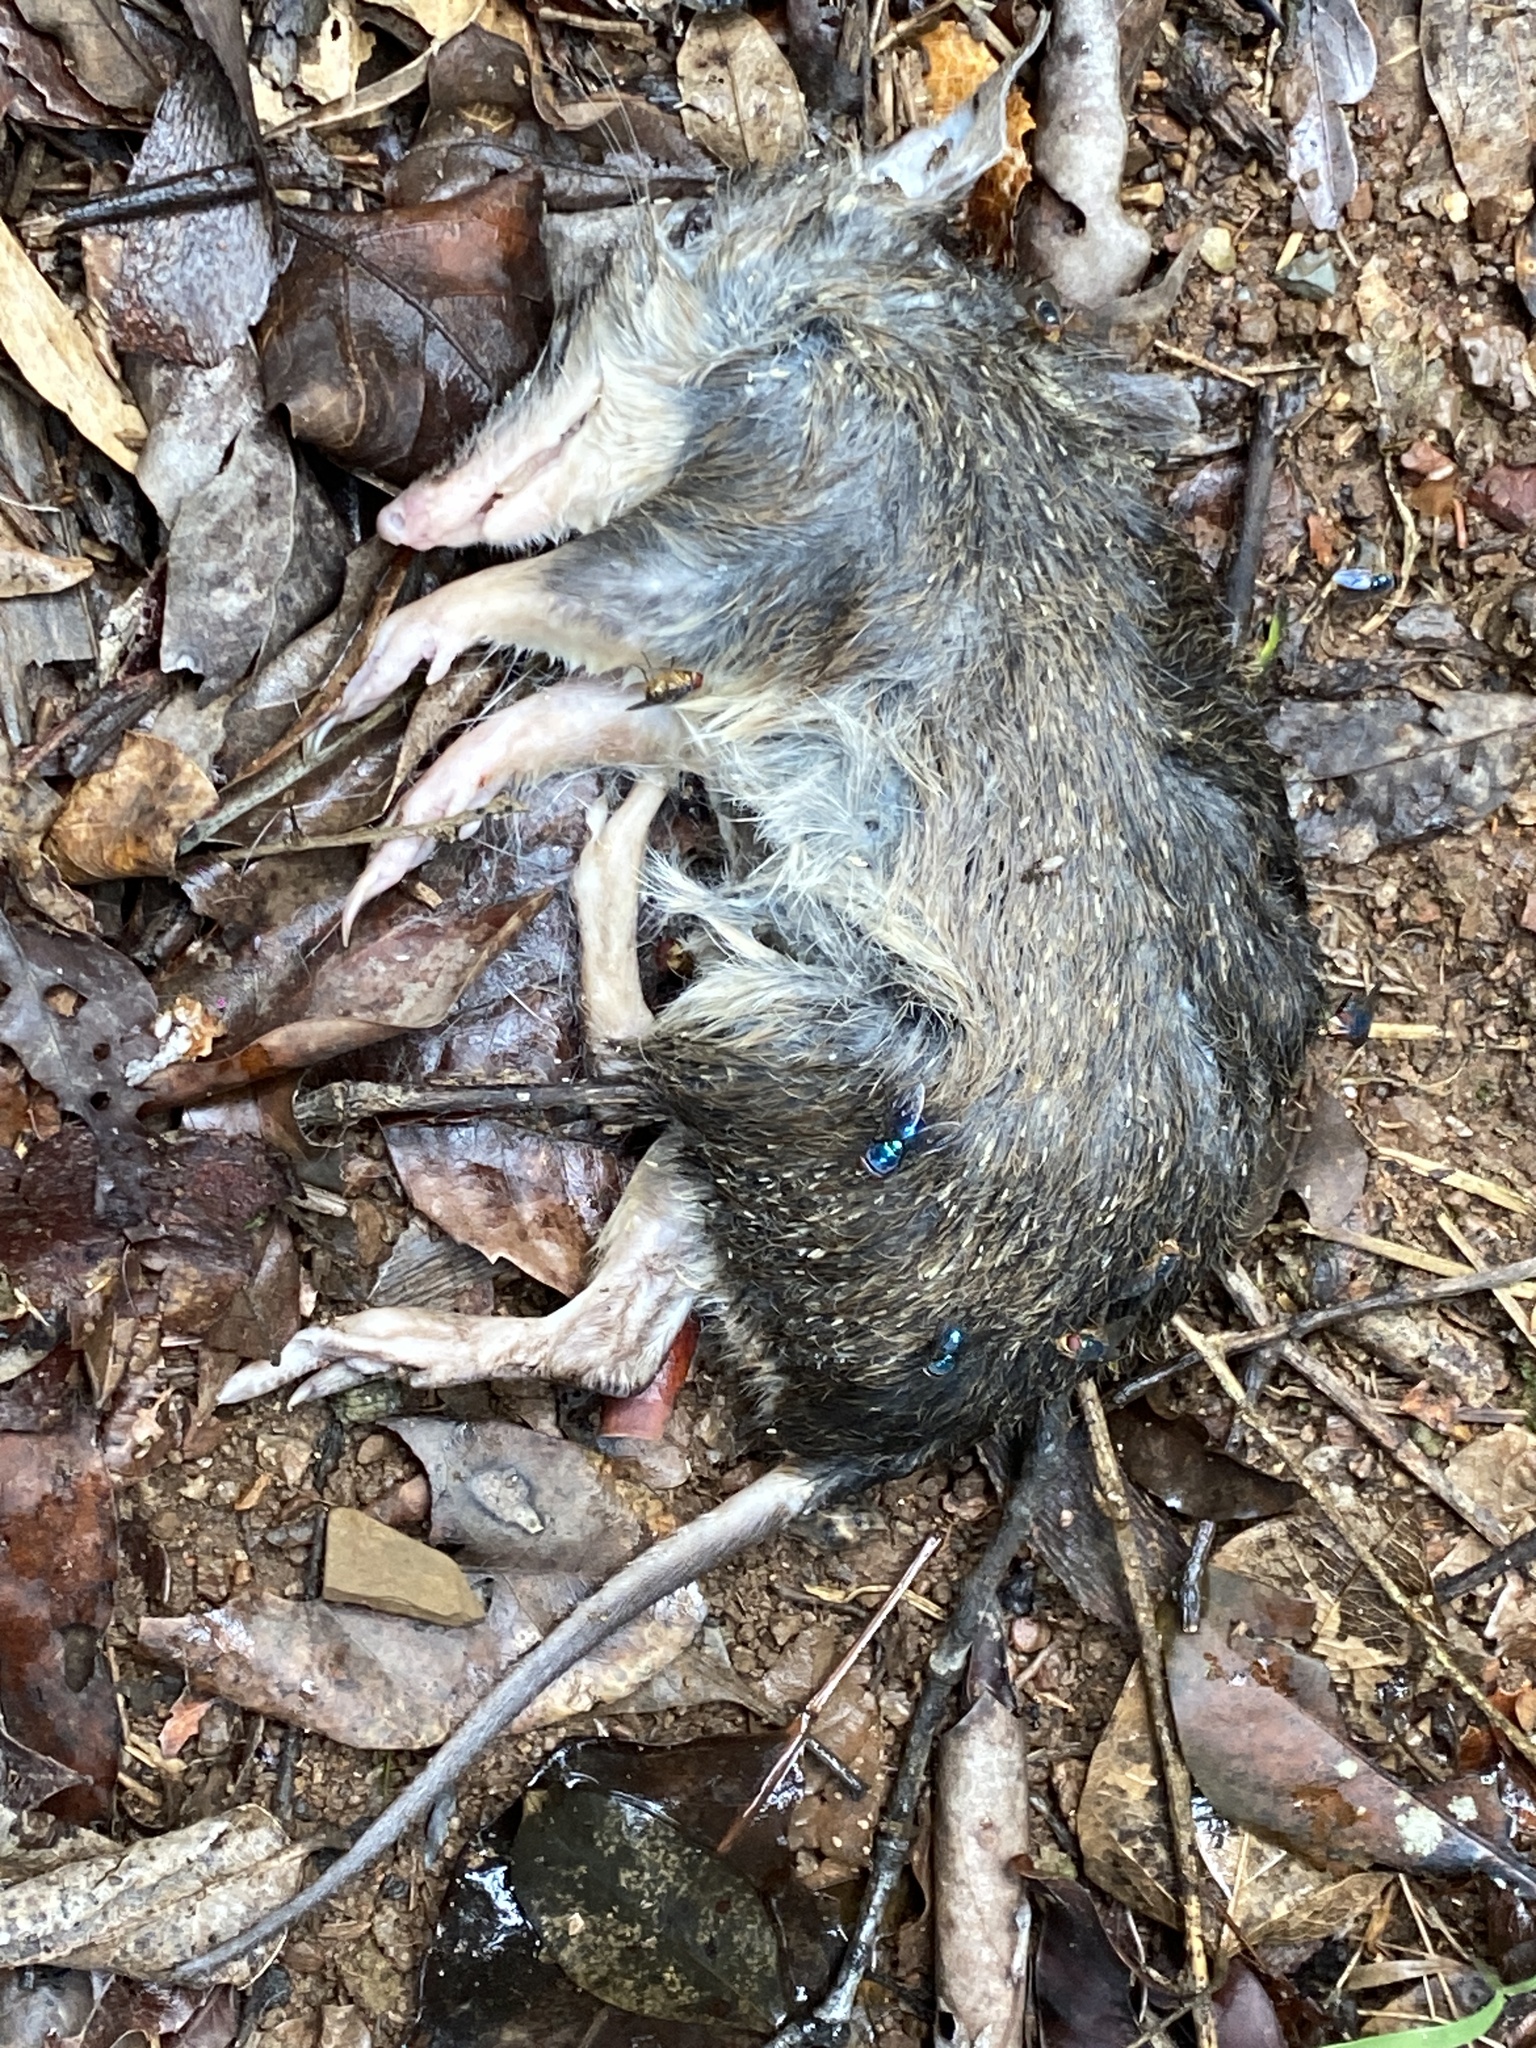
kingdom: Animalia
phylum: Chordata
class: Mammalia
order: Peramelemorphia
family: Peramelidae
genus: Perameles
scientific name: Perameles nasuta
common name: Long-nosed bandicoot
